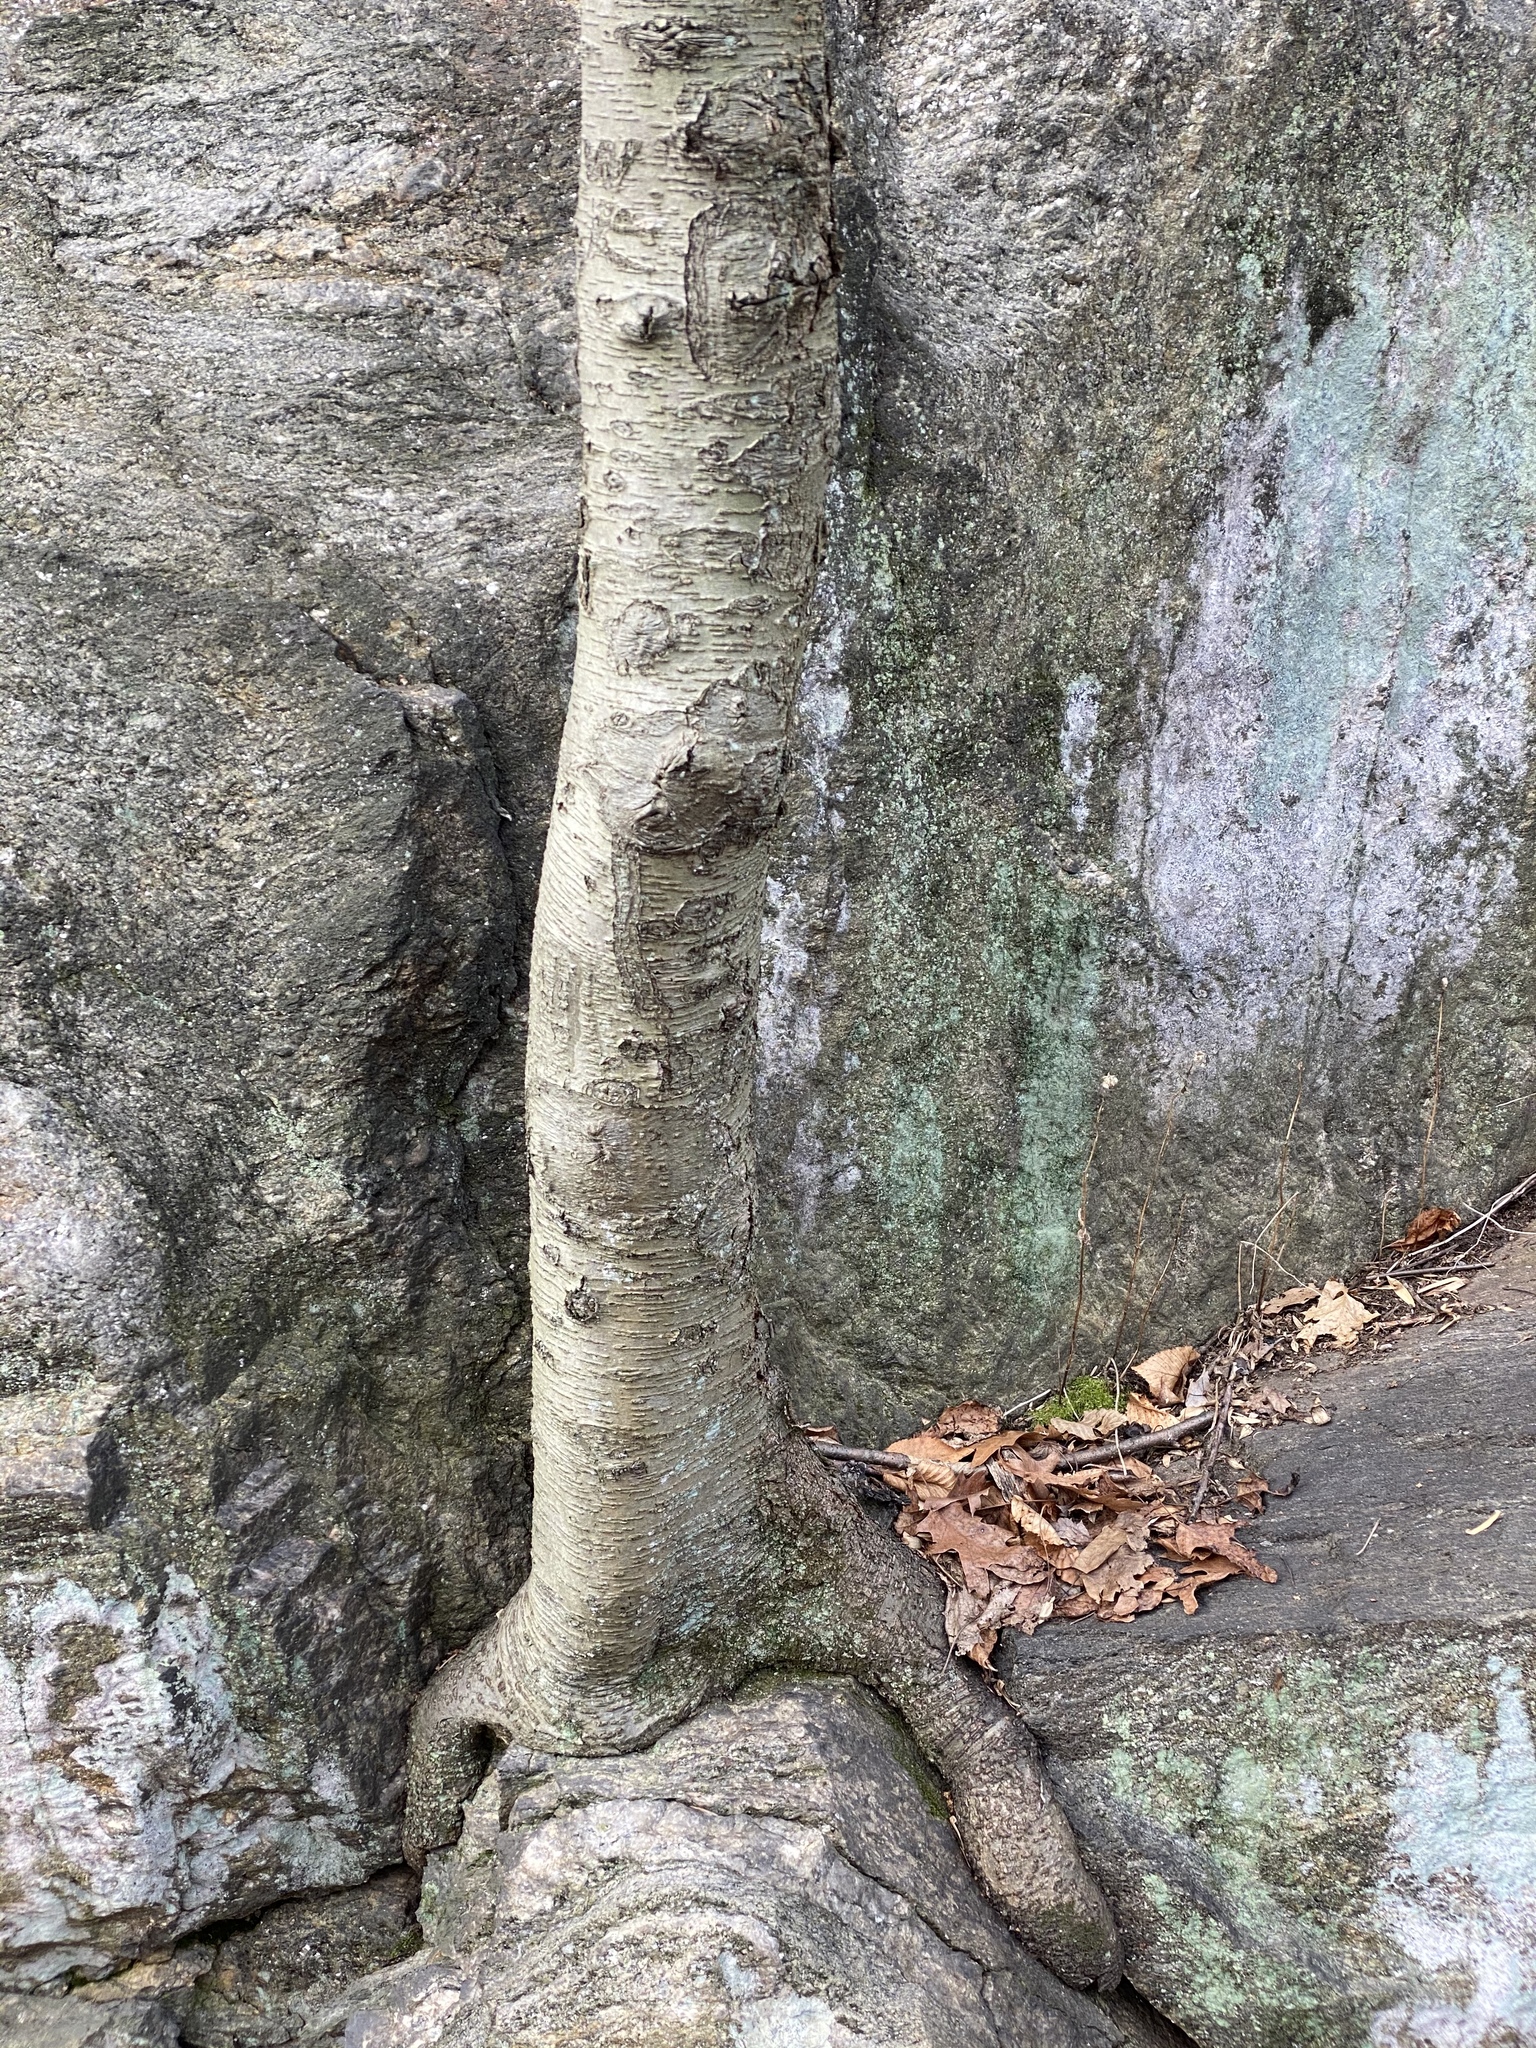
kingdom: Plantae
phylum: Tracheophyta
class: Magnoliopsida
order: Fagales
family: Betulaceae
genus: Betula
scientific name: Betula lenta
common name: Black birch
